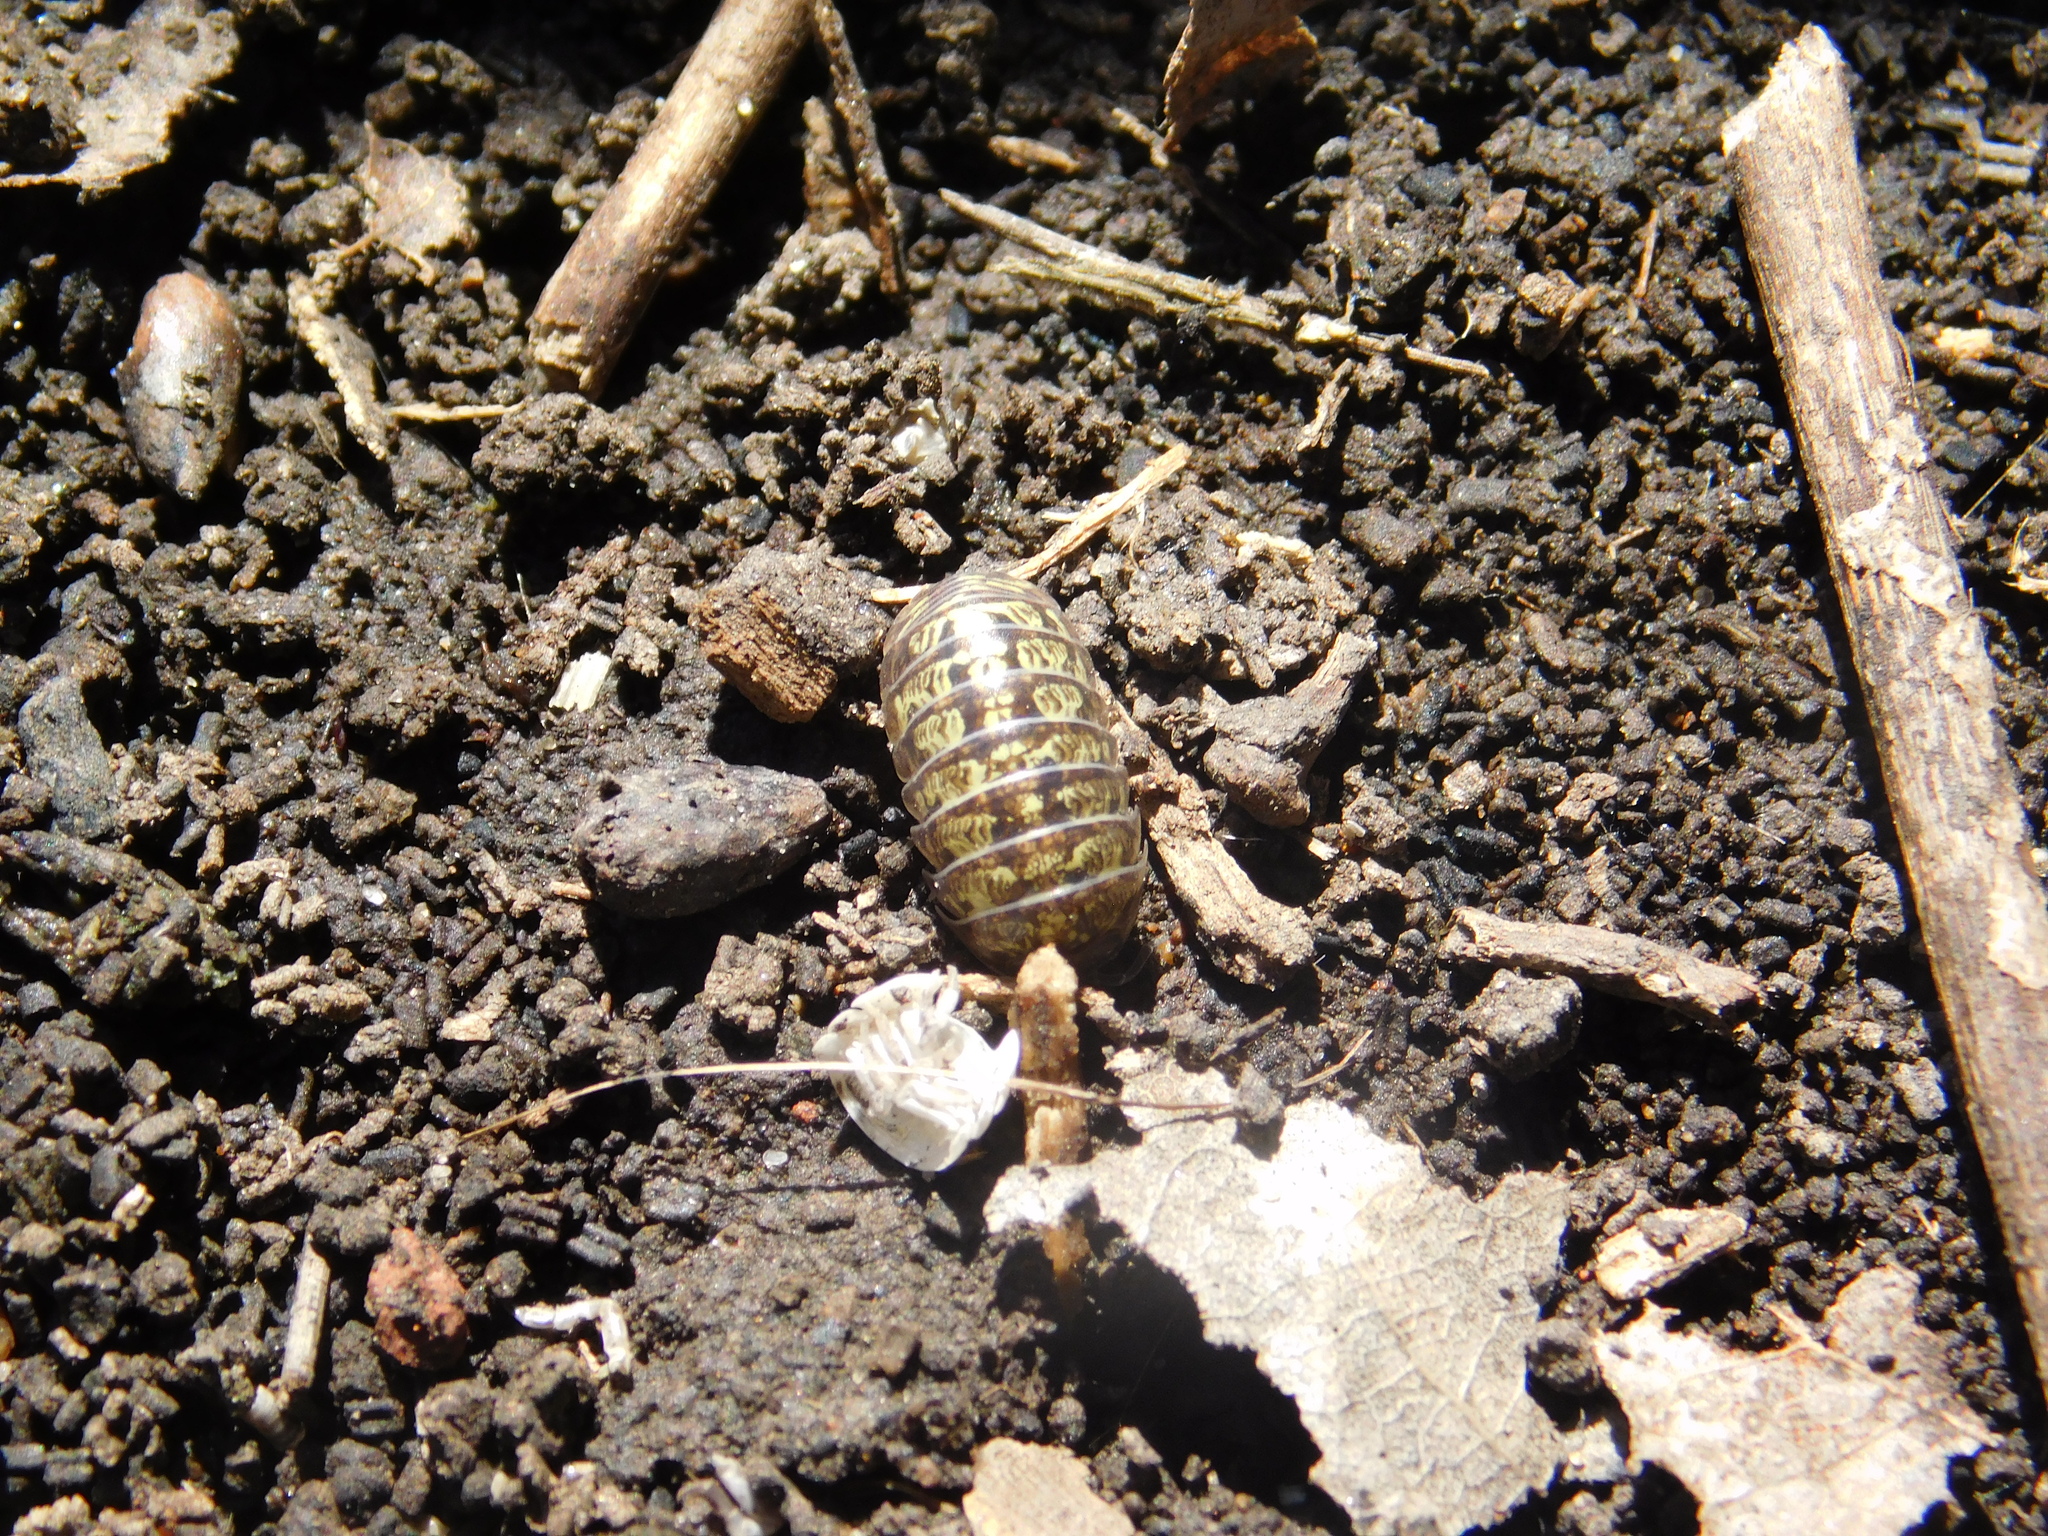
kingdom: Animalia
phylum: Arthropoda
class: Malacostraca
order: Isopoda
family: Armadillidiidae
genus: Armadillidium
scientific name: Armadillidium vulgare
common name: Common pill woodlouse
